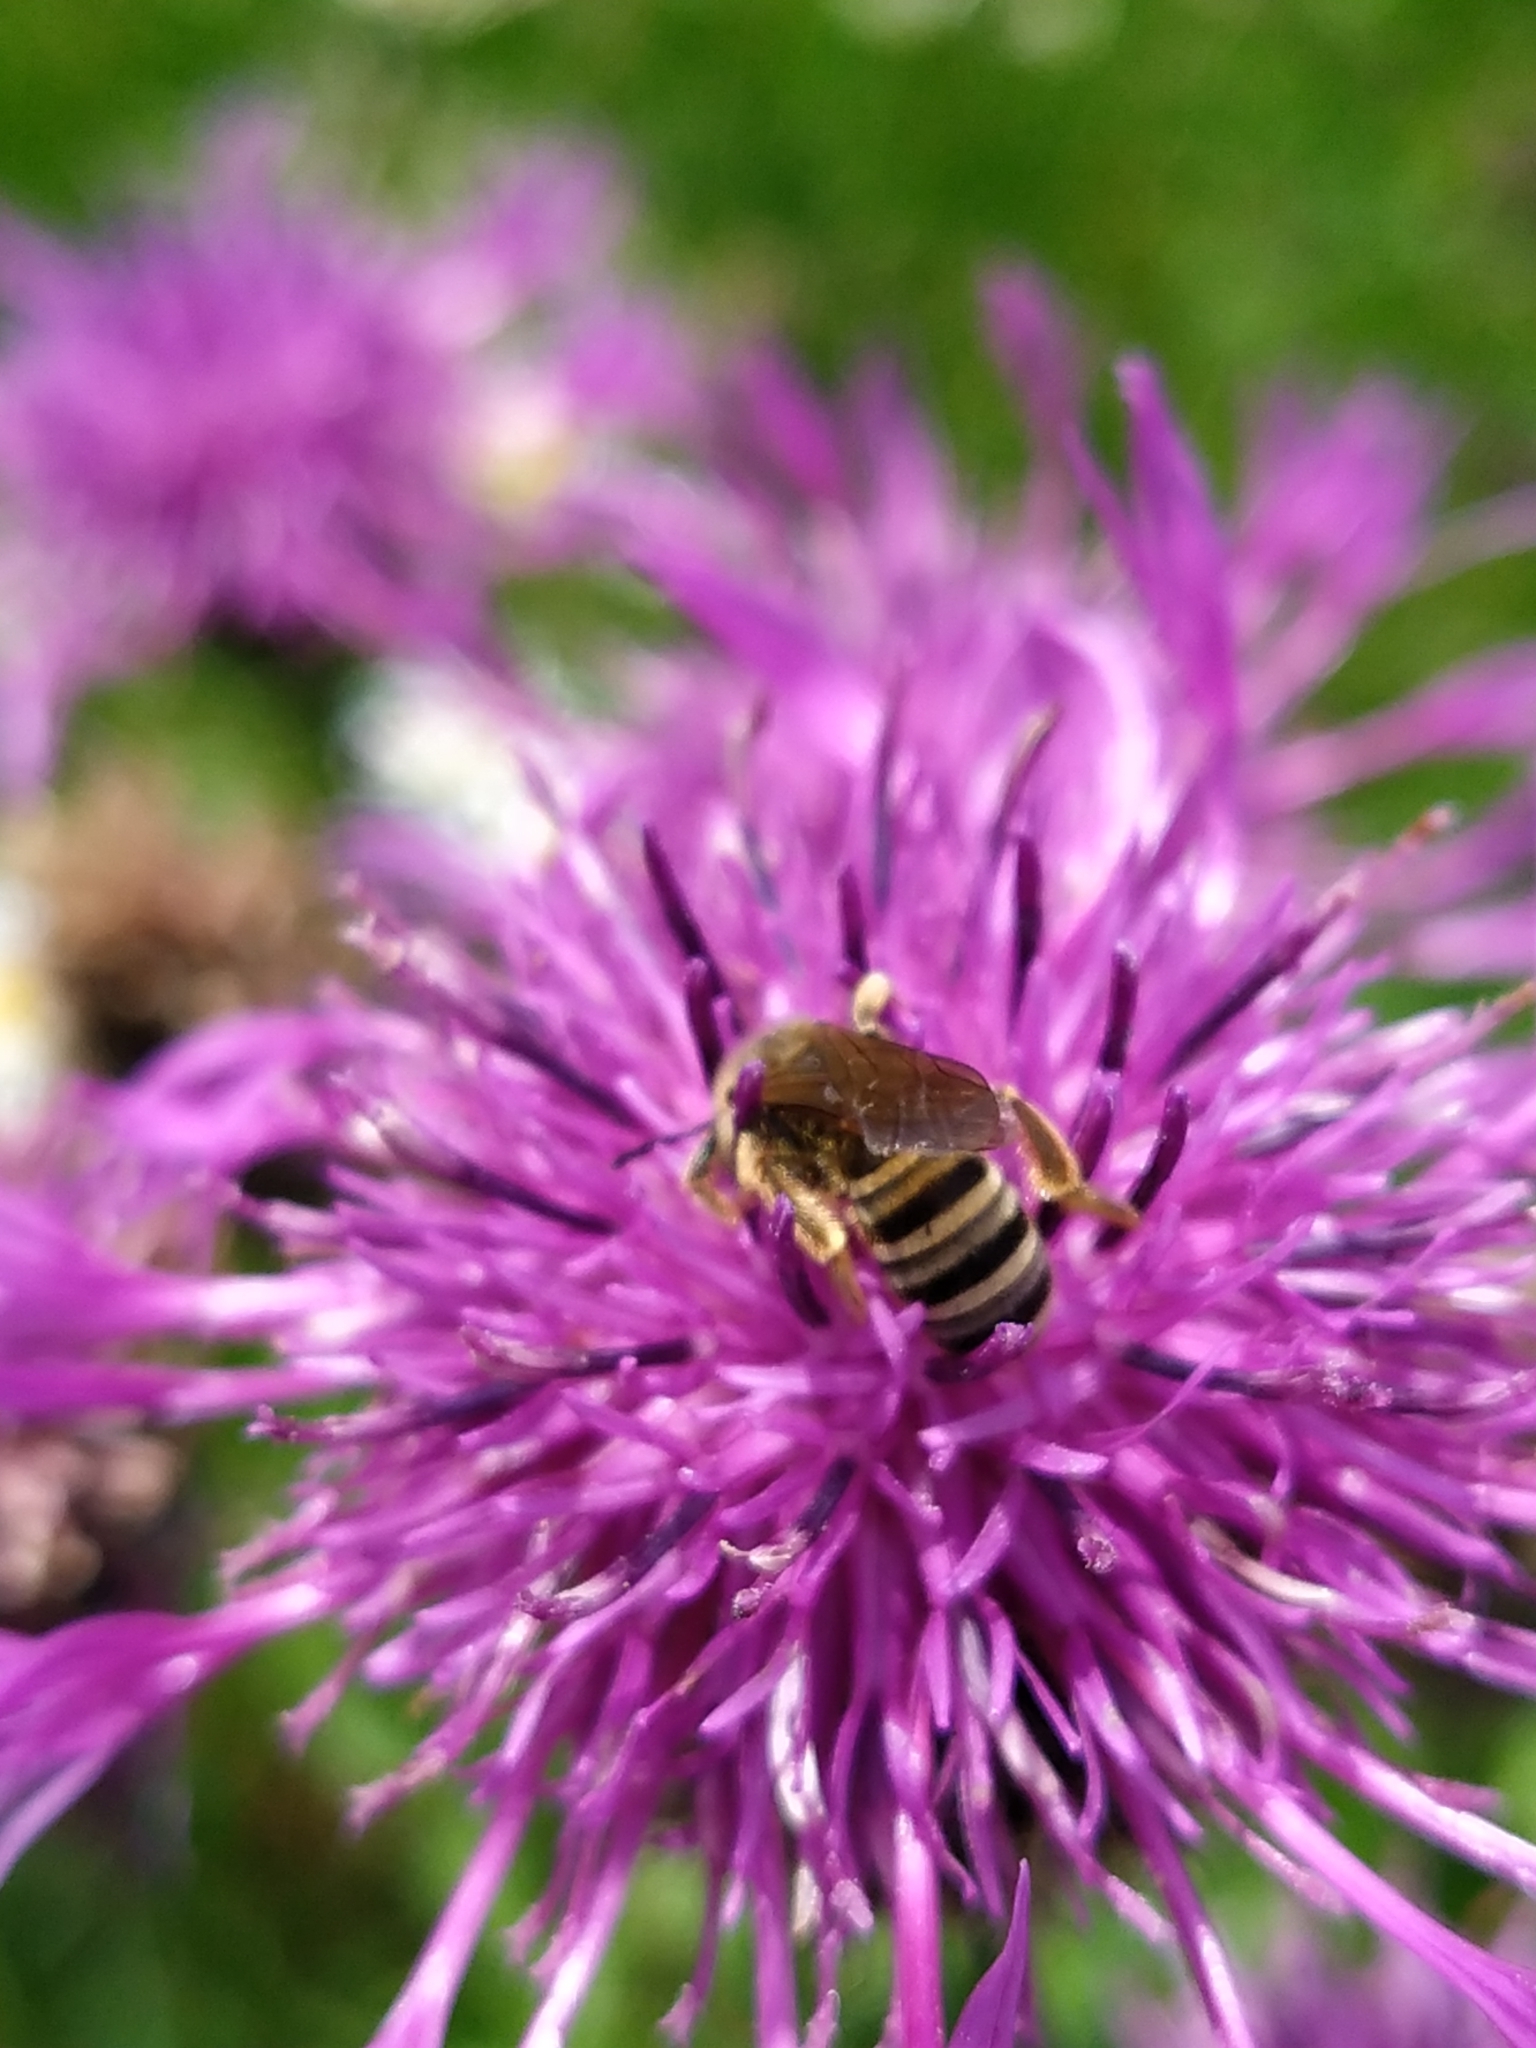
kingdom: Animalia
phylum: Arthropoda
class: Insecta
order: Hymenoptera
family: Halictidae
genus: Halictus
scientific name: Halictus scabiosae
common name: Great banded furrow bee
